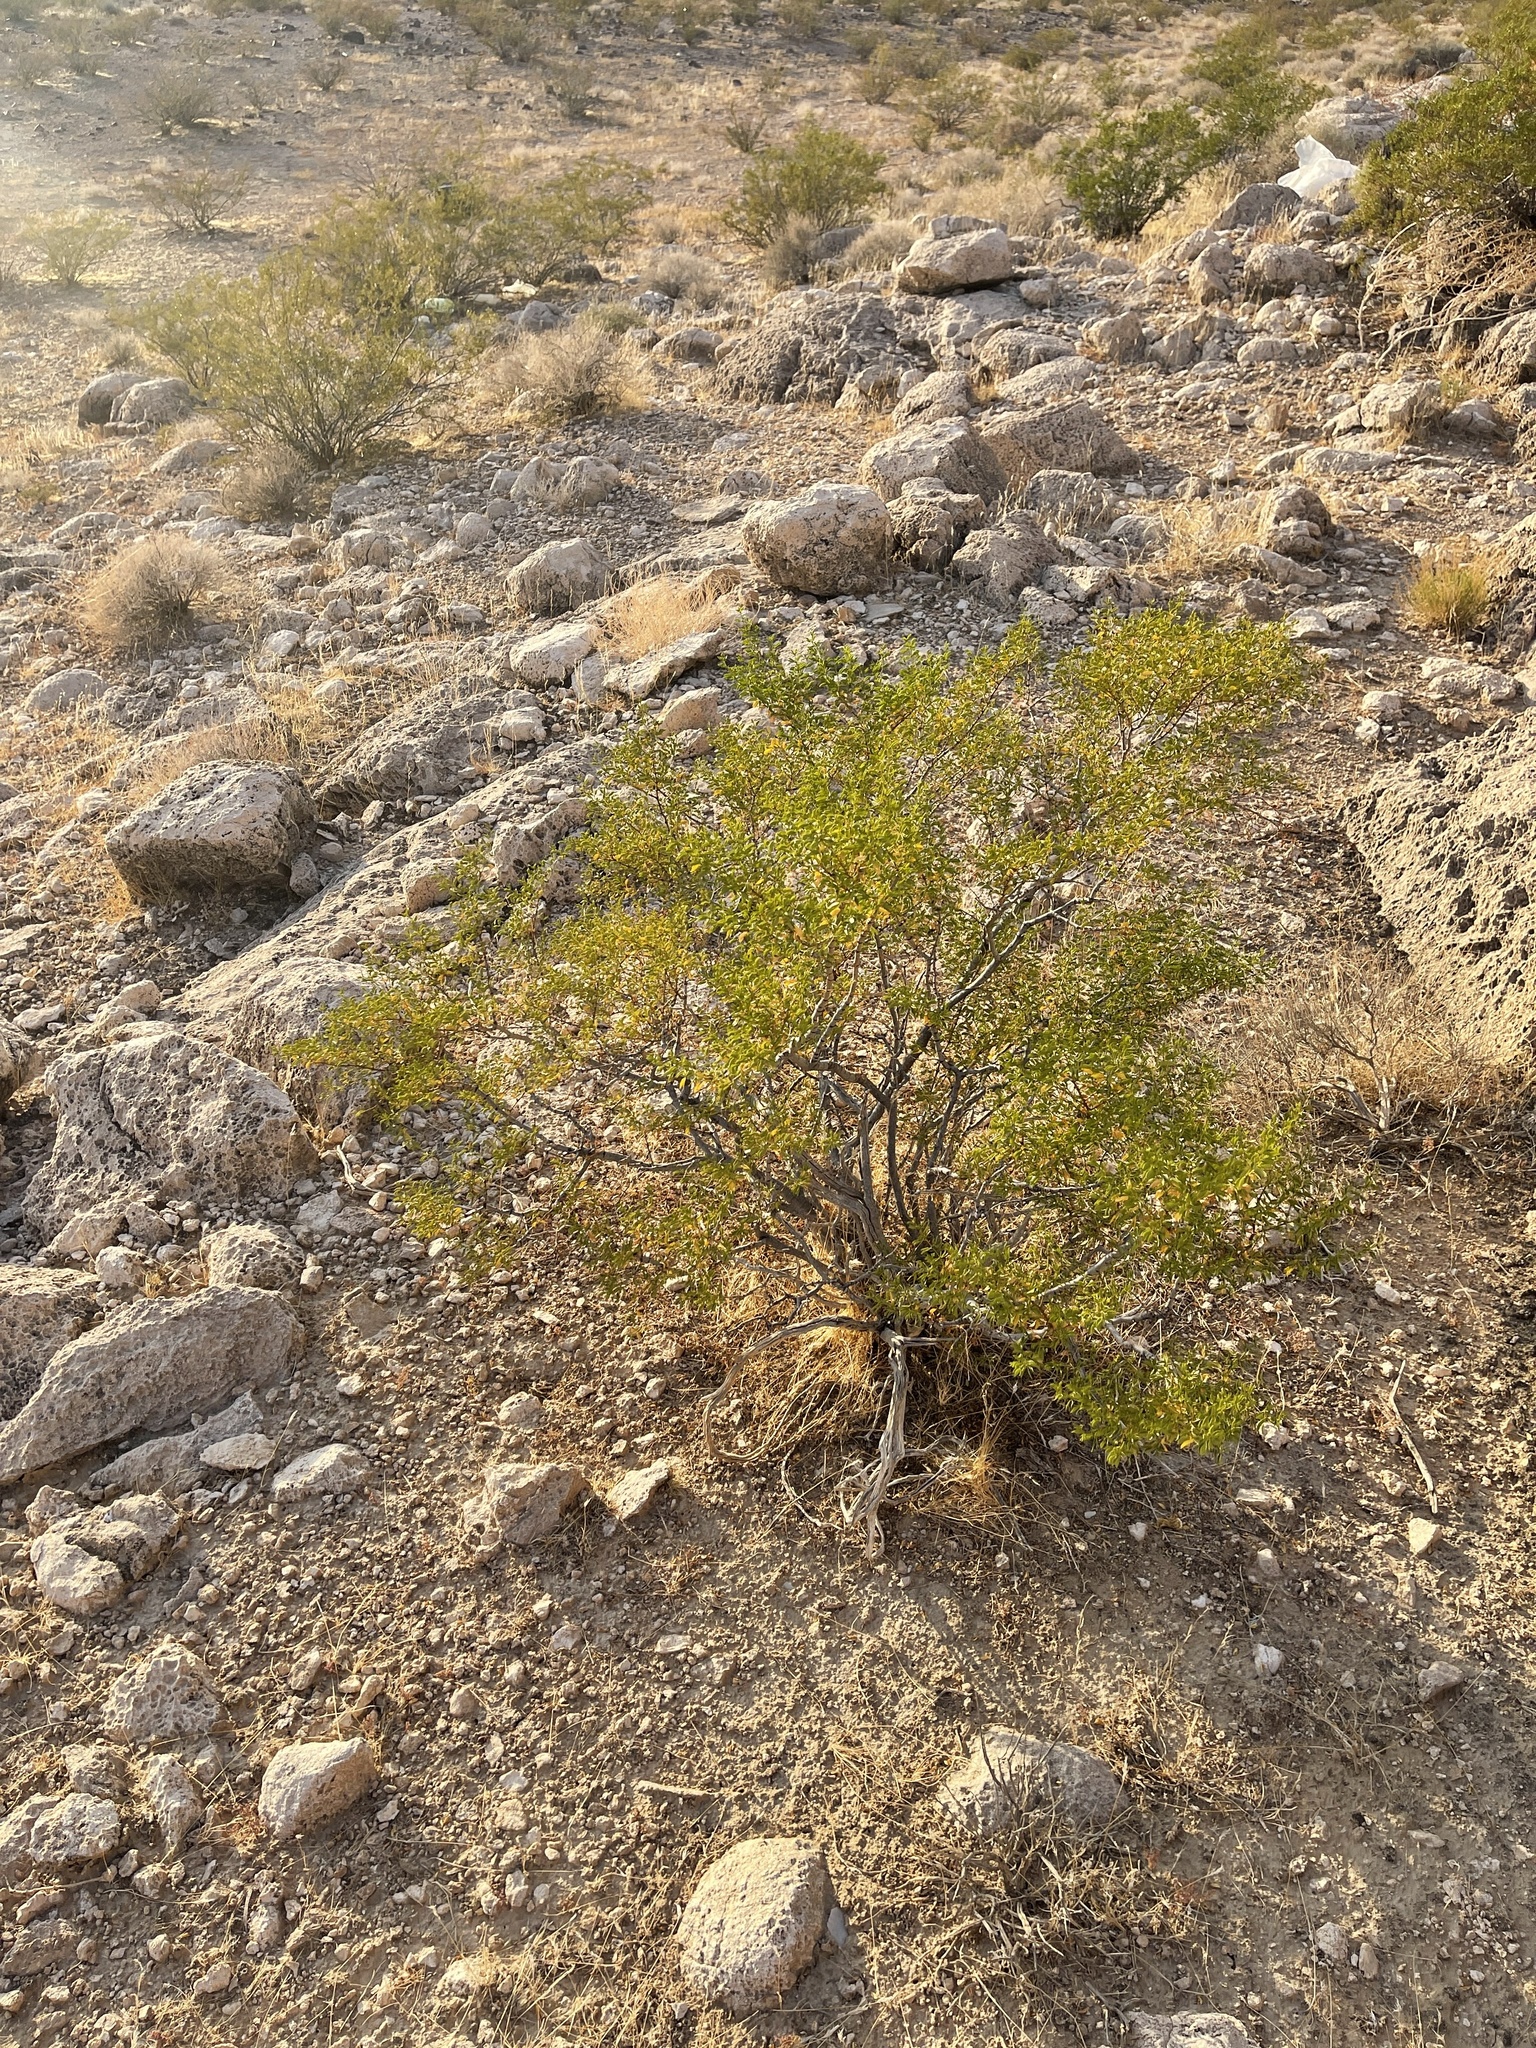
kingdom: Plantae
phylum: Tracheophyta
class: Magnoliopsida
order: Zygophyllales
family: Zygophyllaceae
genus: Larrea
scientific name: Larrea tridentata
